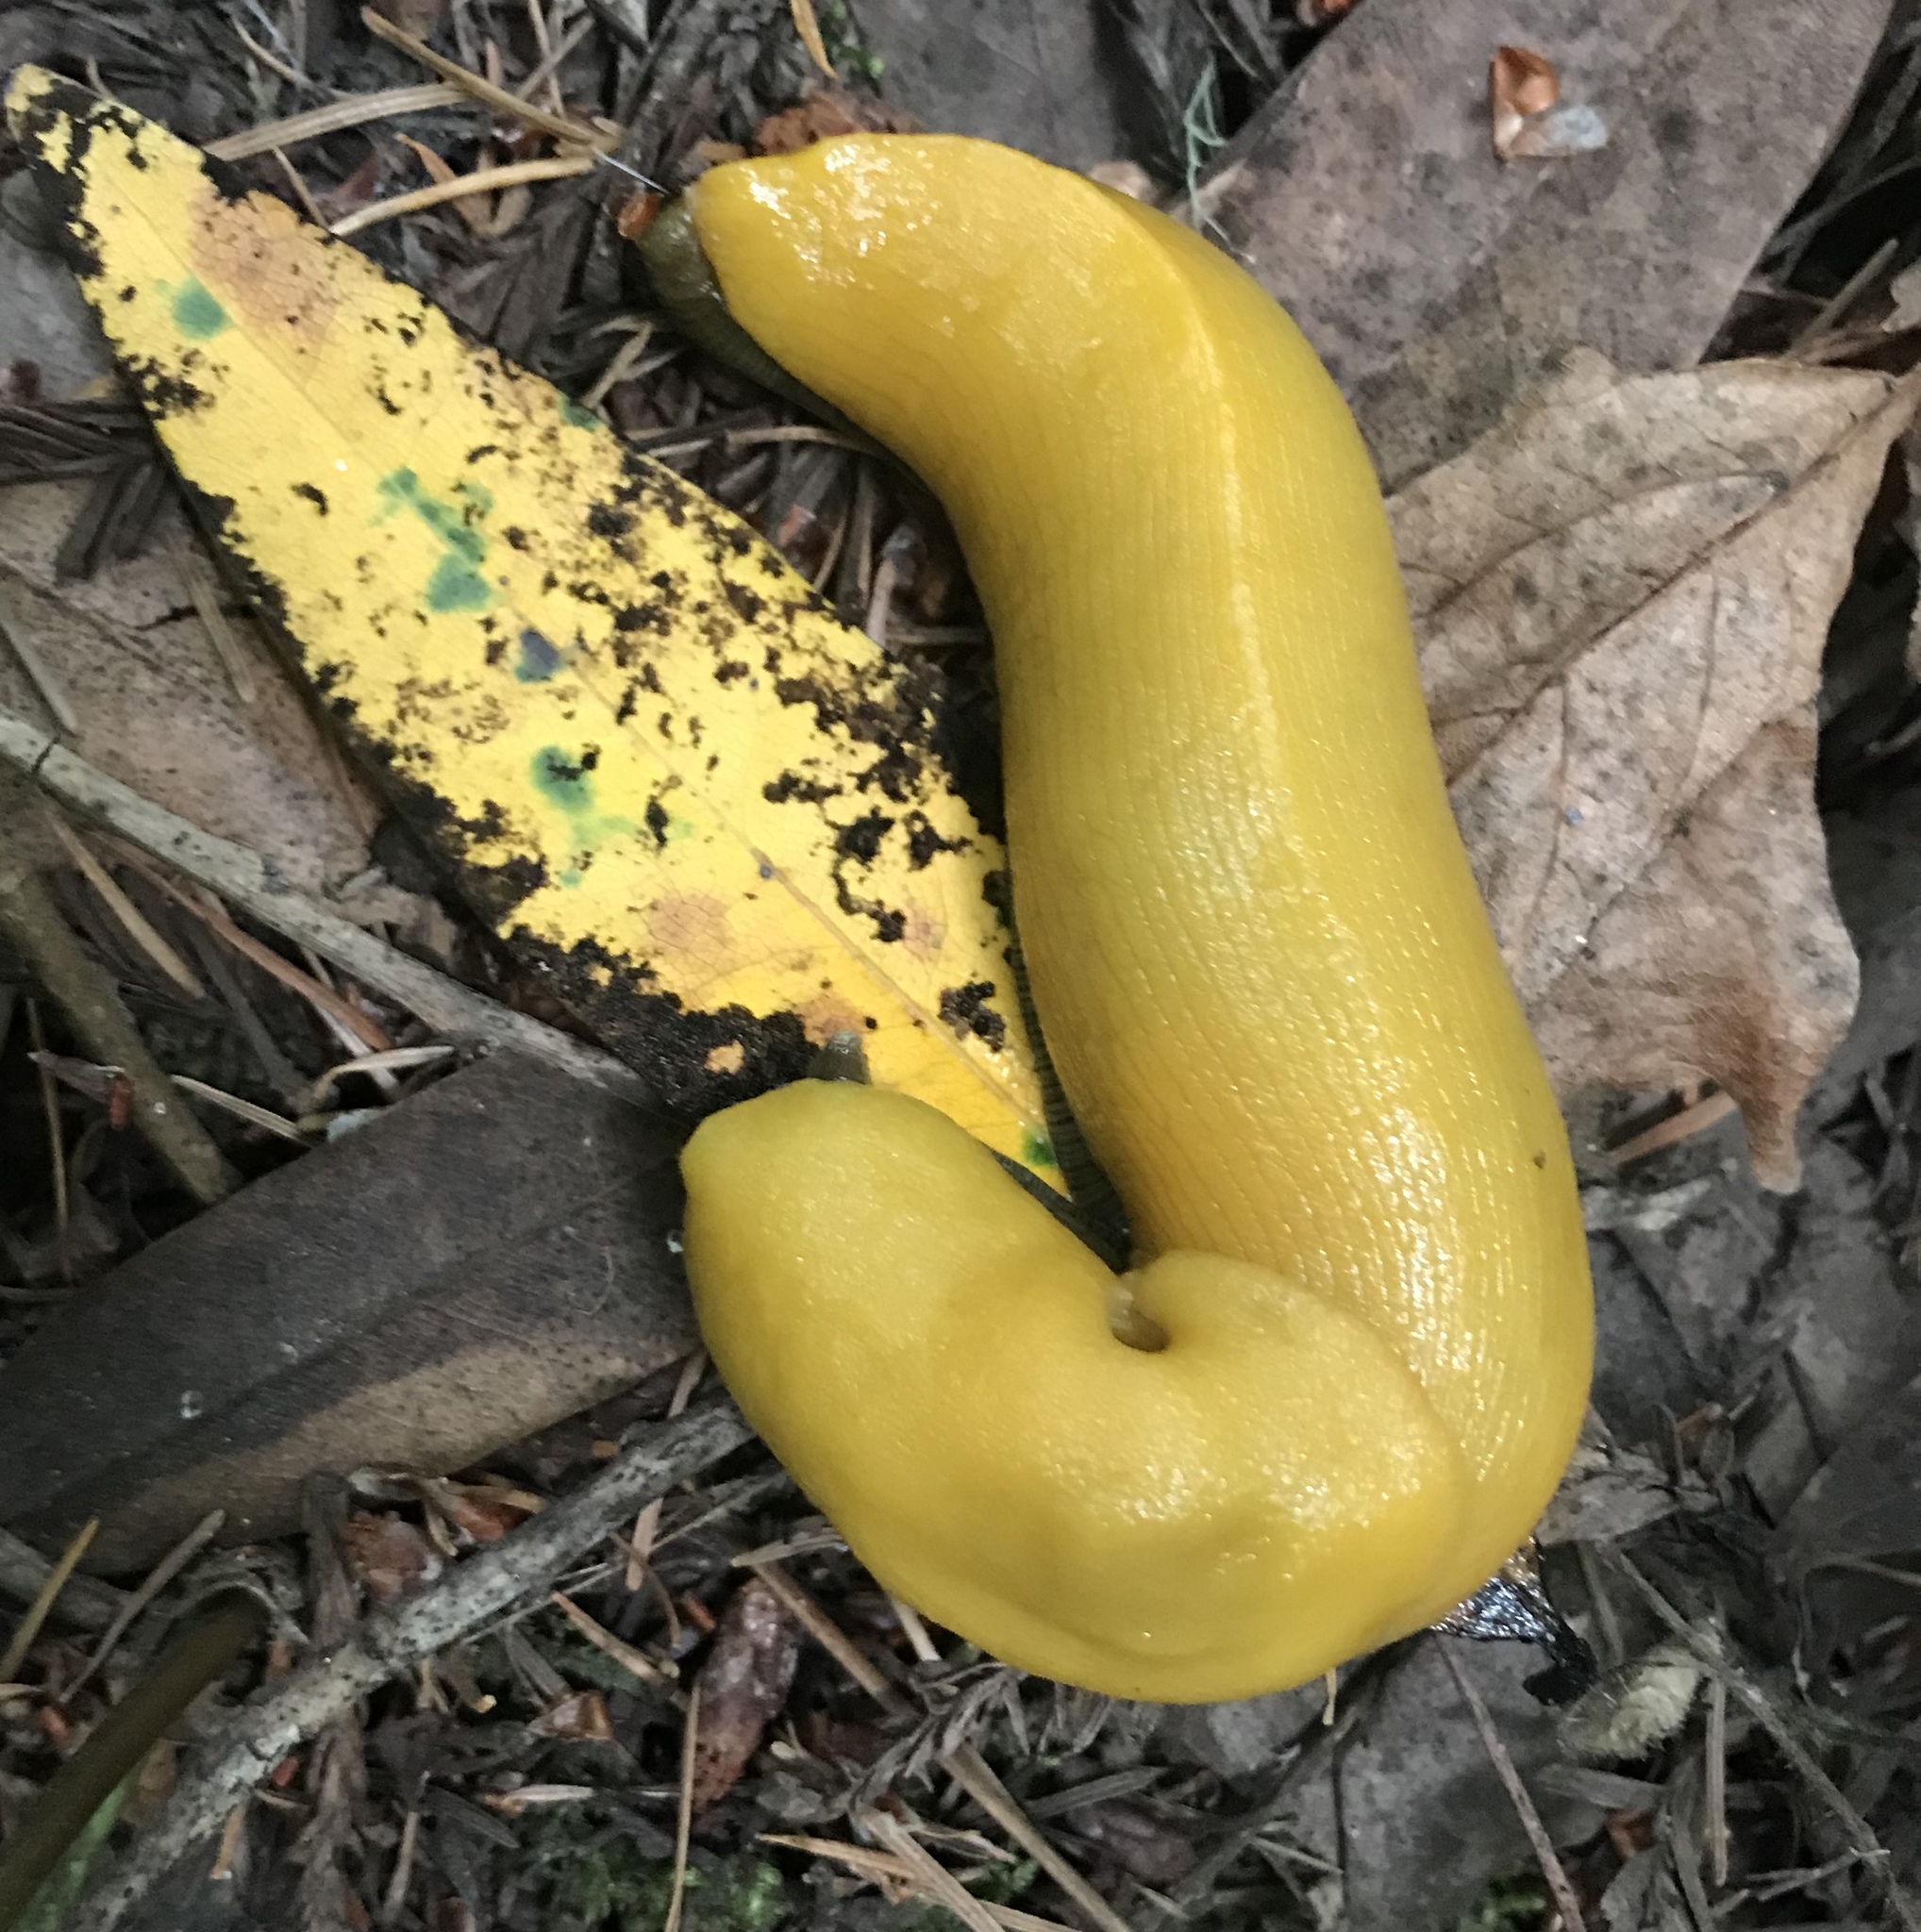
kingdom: Animalia
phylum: Mollusca
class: Gastropoda
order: Stylommatophora
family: Ariolimacidae
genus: Ariolimax
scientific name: Ariolimax dolichophallus
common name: Slender banana slug
